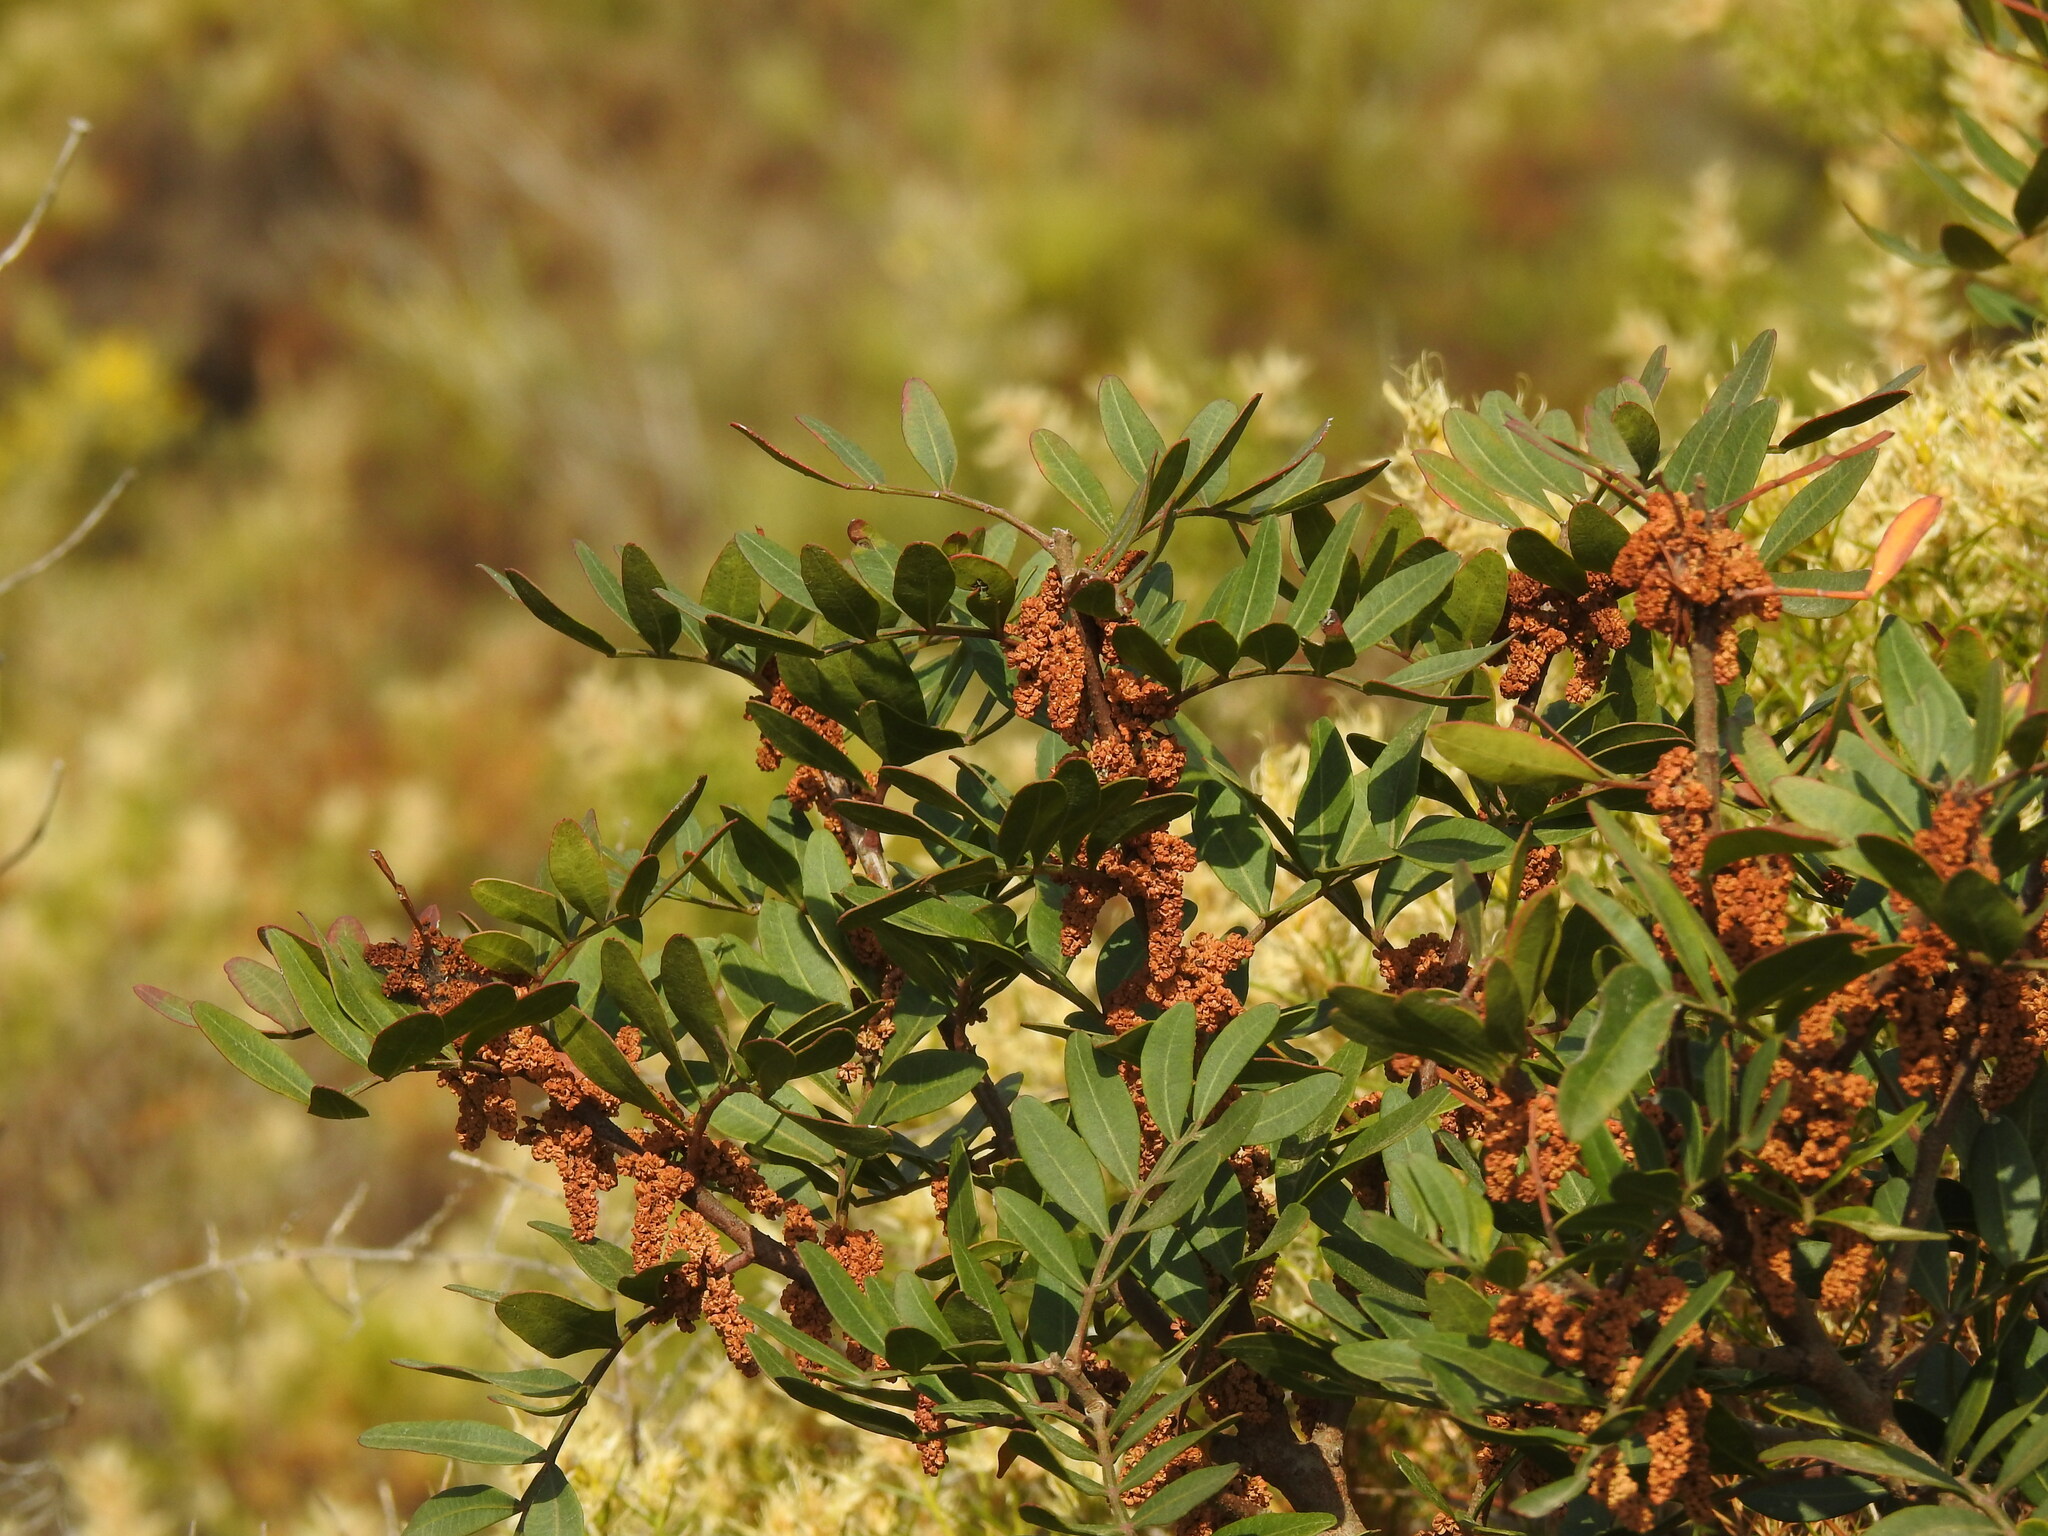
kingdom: Plantae
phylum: Tracheophyta
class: Magnoliopsida
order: Sapindales
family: Anacardiaceae
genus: Pistacia
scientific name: Pistacia lentiscus
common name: Lentisk
